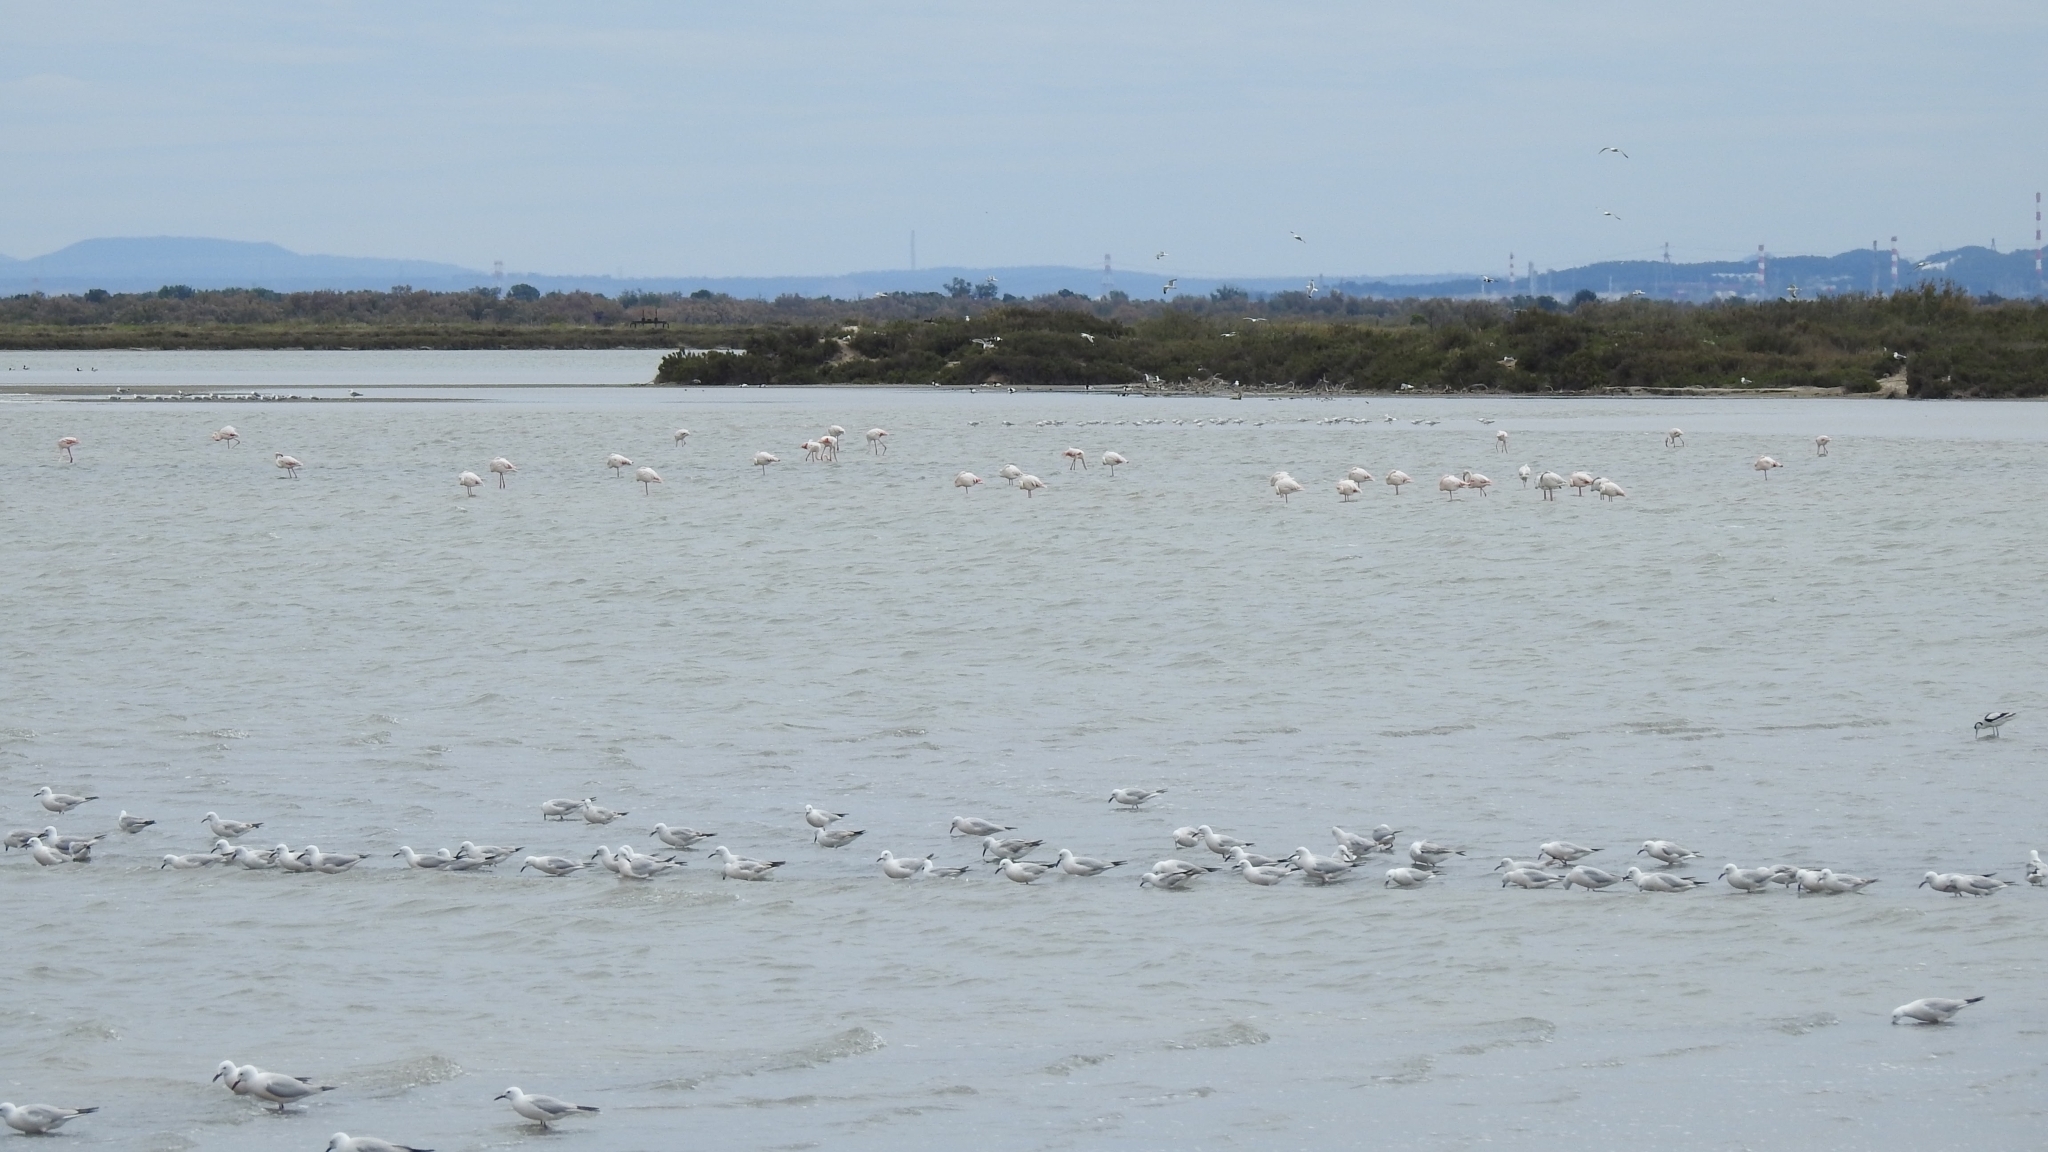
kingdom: Animalia
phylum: Chordata
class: Aves
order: Charadriiformes
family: Laridae
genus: Chroicocephalus
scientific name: Chroicocephalus genei
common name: Slender-billed gull
